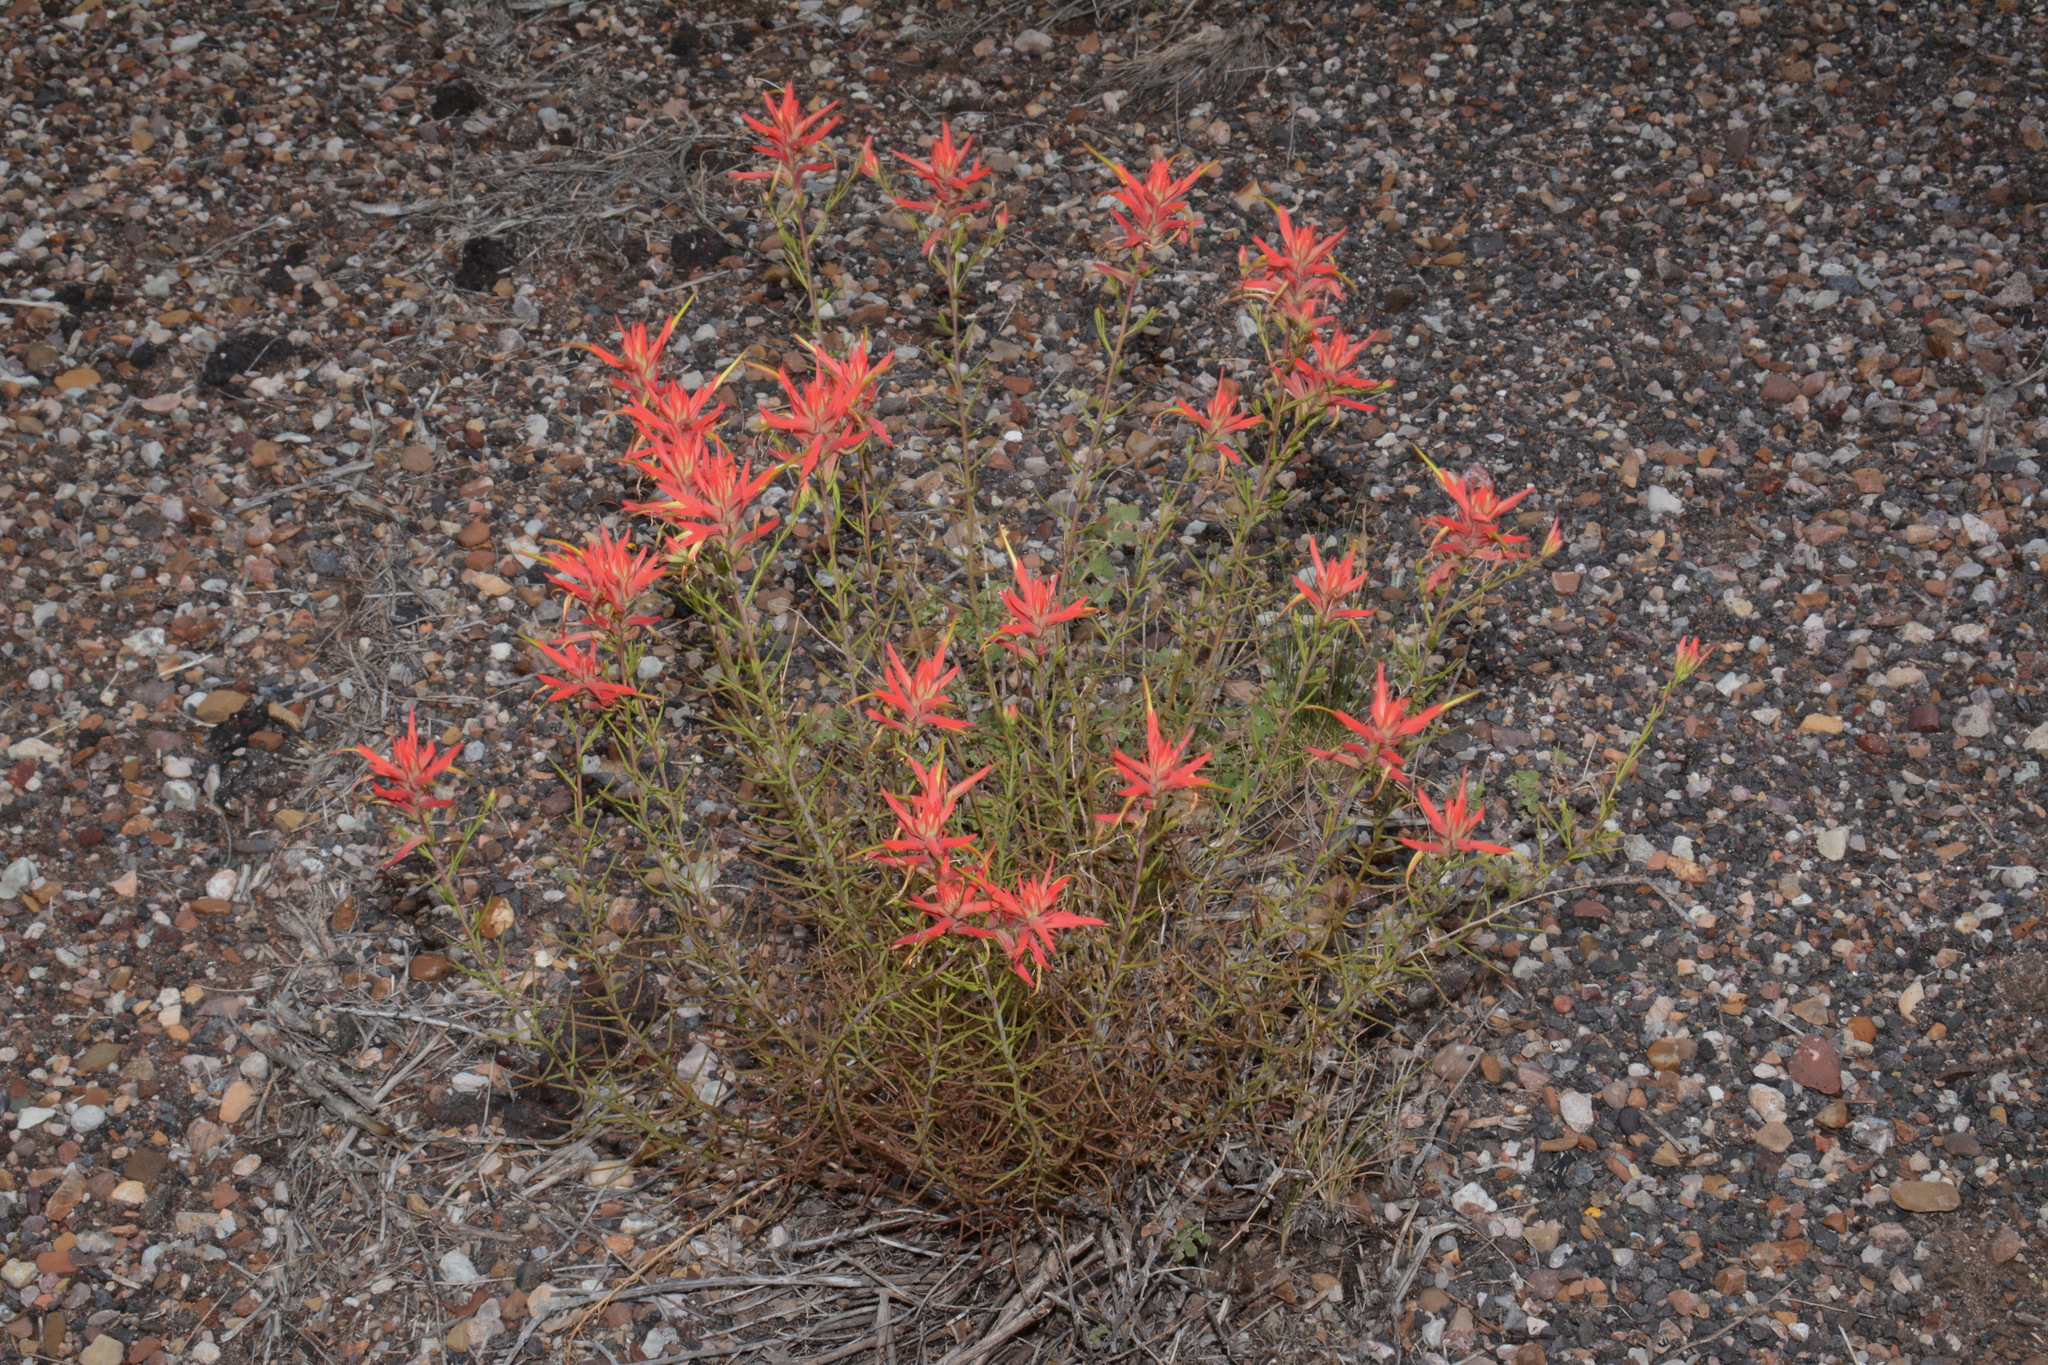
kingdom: Plantae
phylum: Tracheophyta
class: Magnoliopsida
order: Lamiales
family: Orobanchaceae
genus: Castilleja
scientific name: Castilleja linariifolia
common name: Wyoming paintbrush
